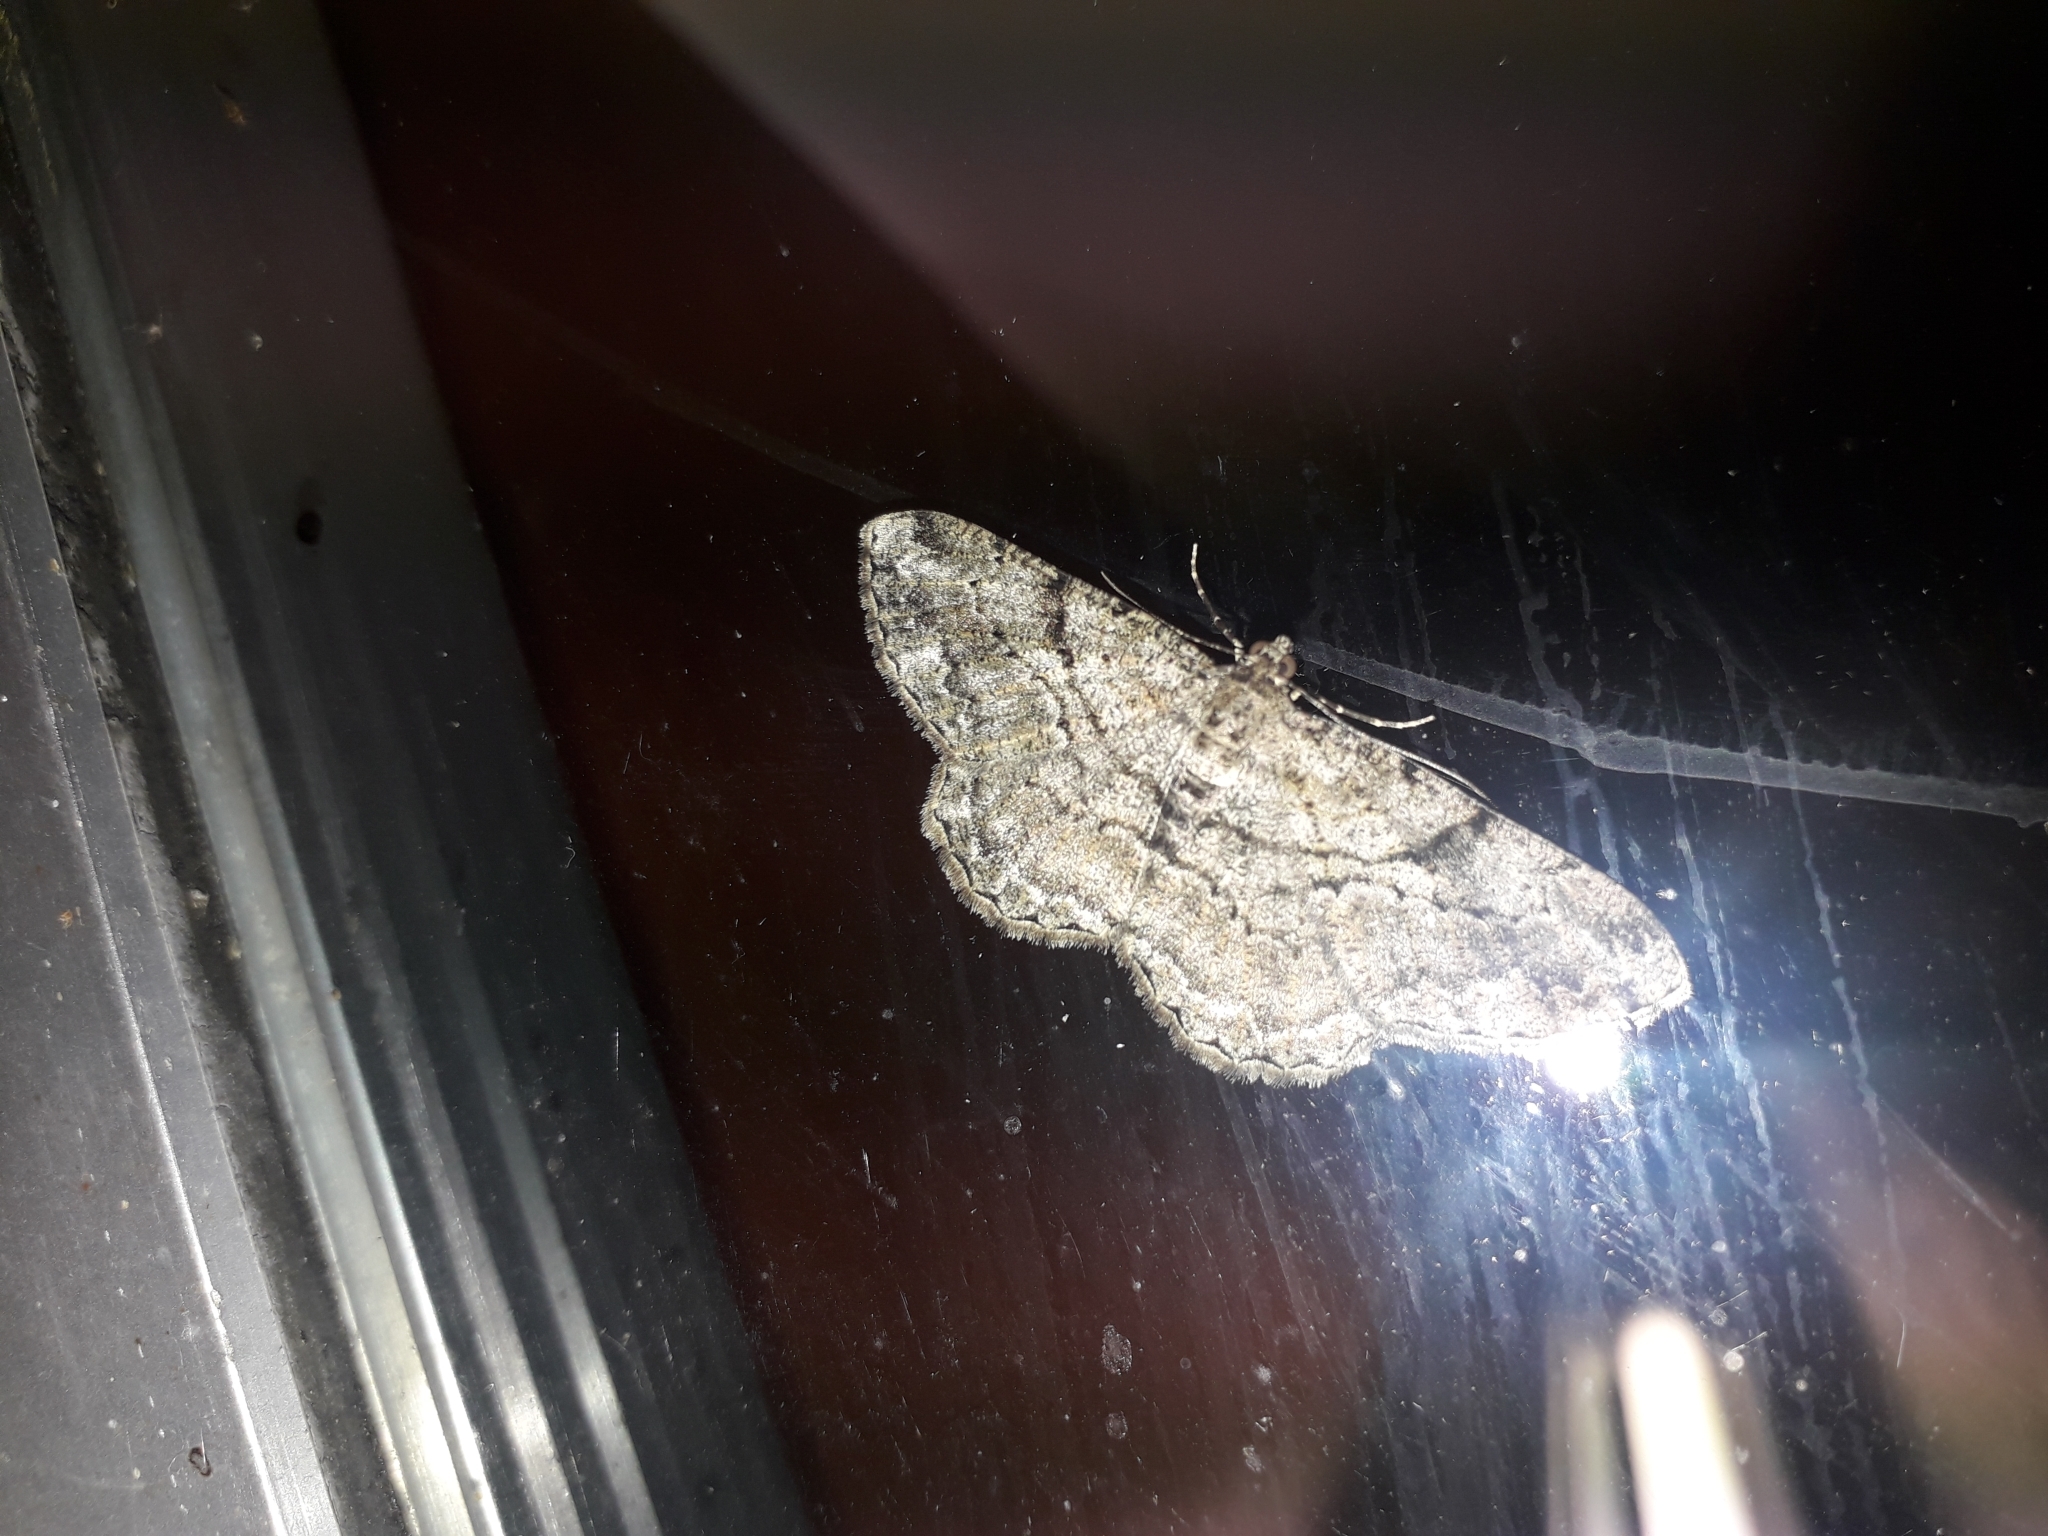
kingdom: Animalia
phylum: Arthropoda
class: Insecta
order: Lepidoptera
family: Geometridae
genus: Peribatodes
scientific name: Peribatodes rhomboidaria
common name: Willow beauty
